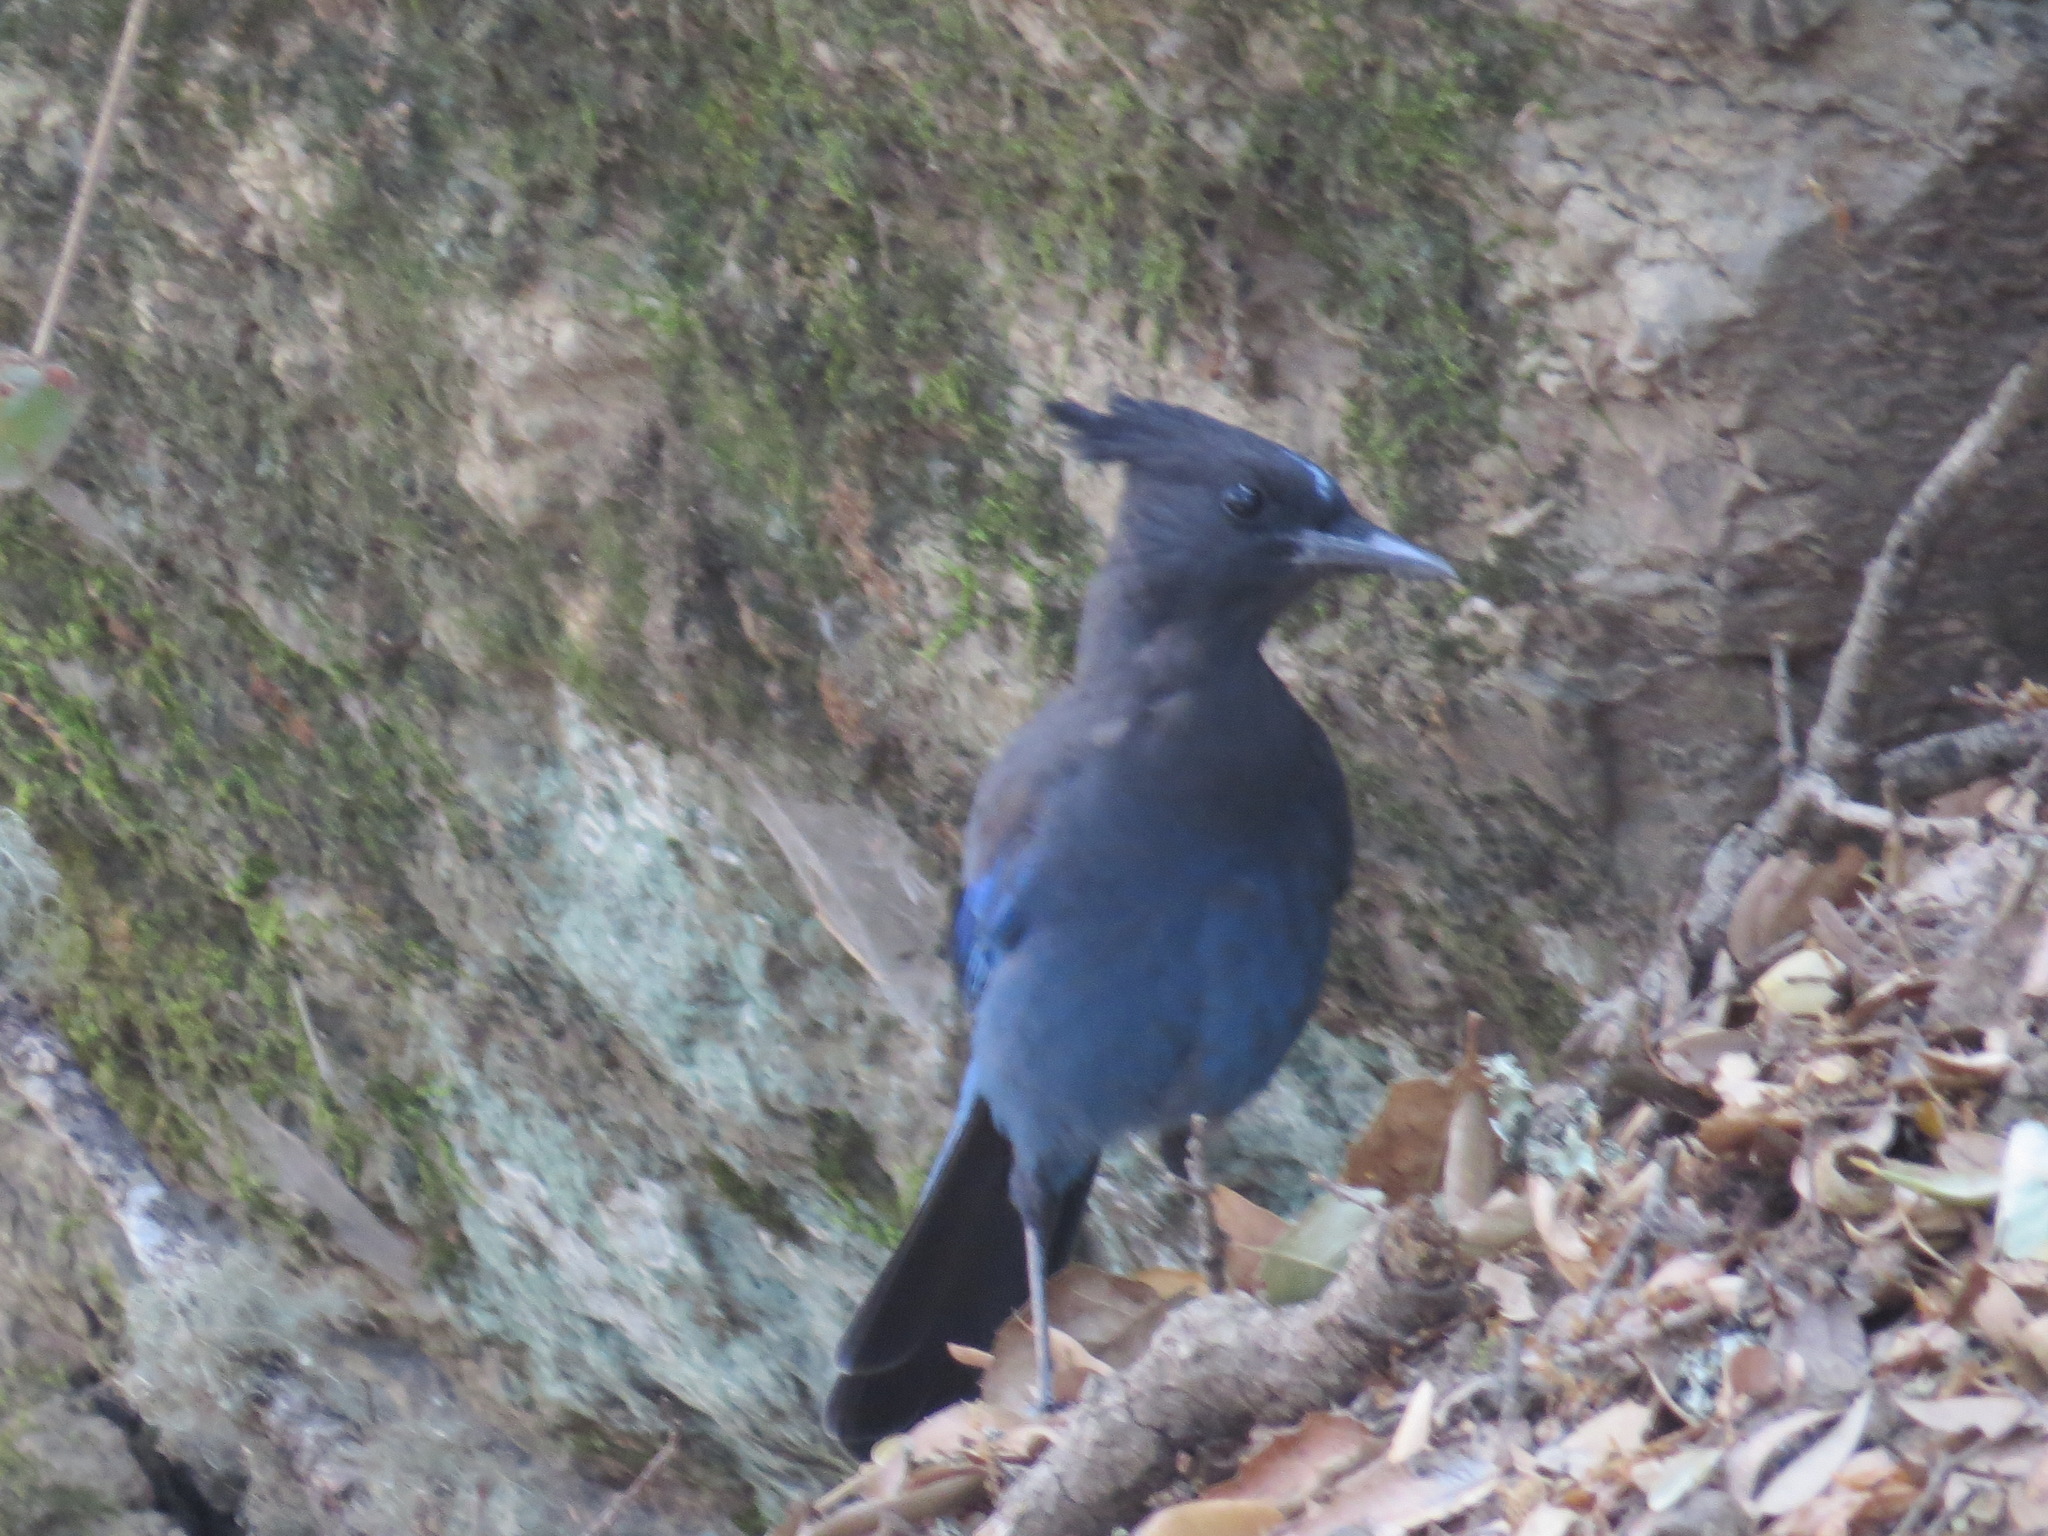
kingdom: Animalia
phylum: Chordata
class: Aves
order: Passeriformes
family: Corvidae
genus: Cyanocitta
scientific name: Cyanocitta stelleri
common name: Steller's jay
